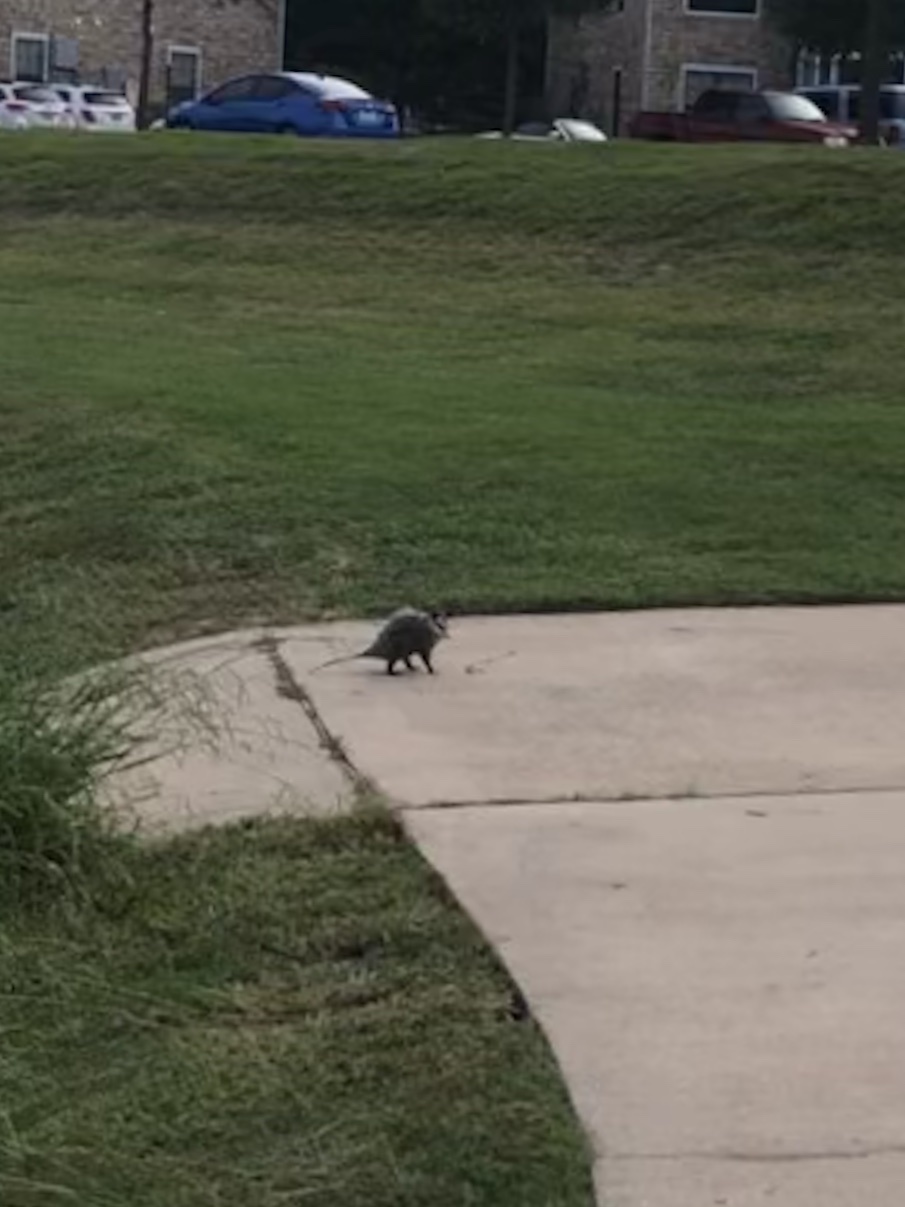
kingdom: Animalia
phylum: Chordata
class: Mammalia
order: Didelphimorphia
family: Didelphidae
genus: Didelphis
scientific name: Didelphis virginiana
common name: Virginia opossum
